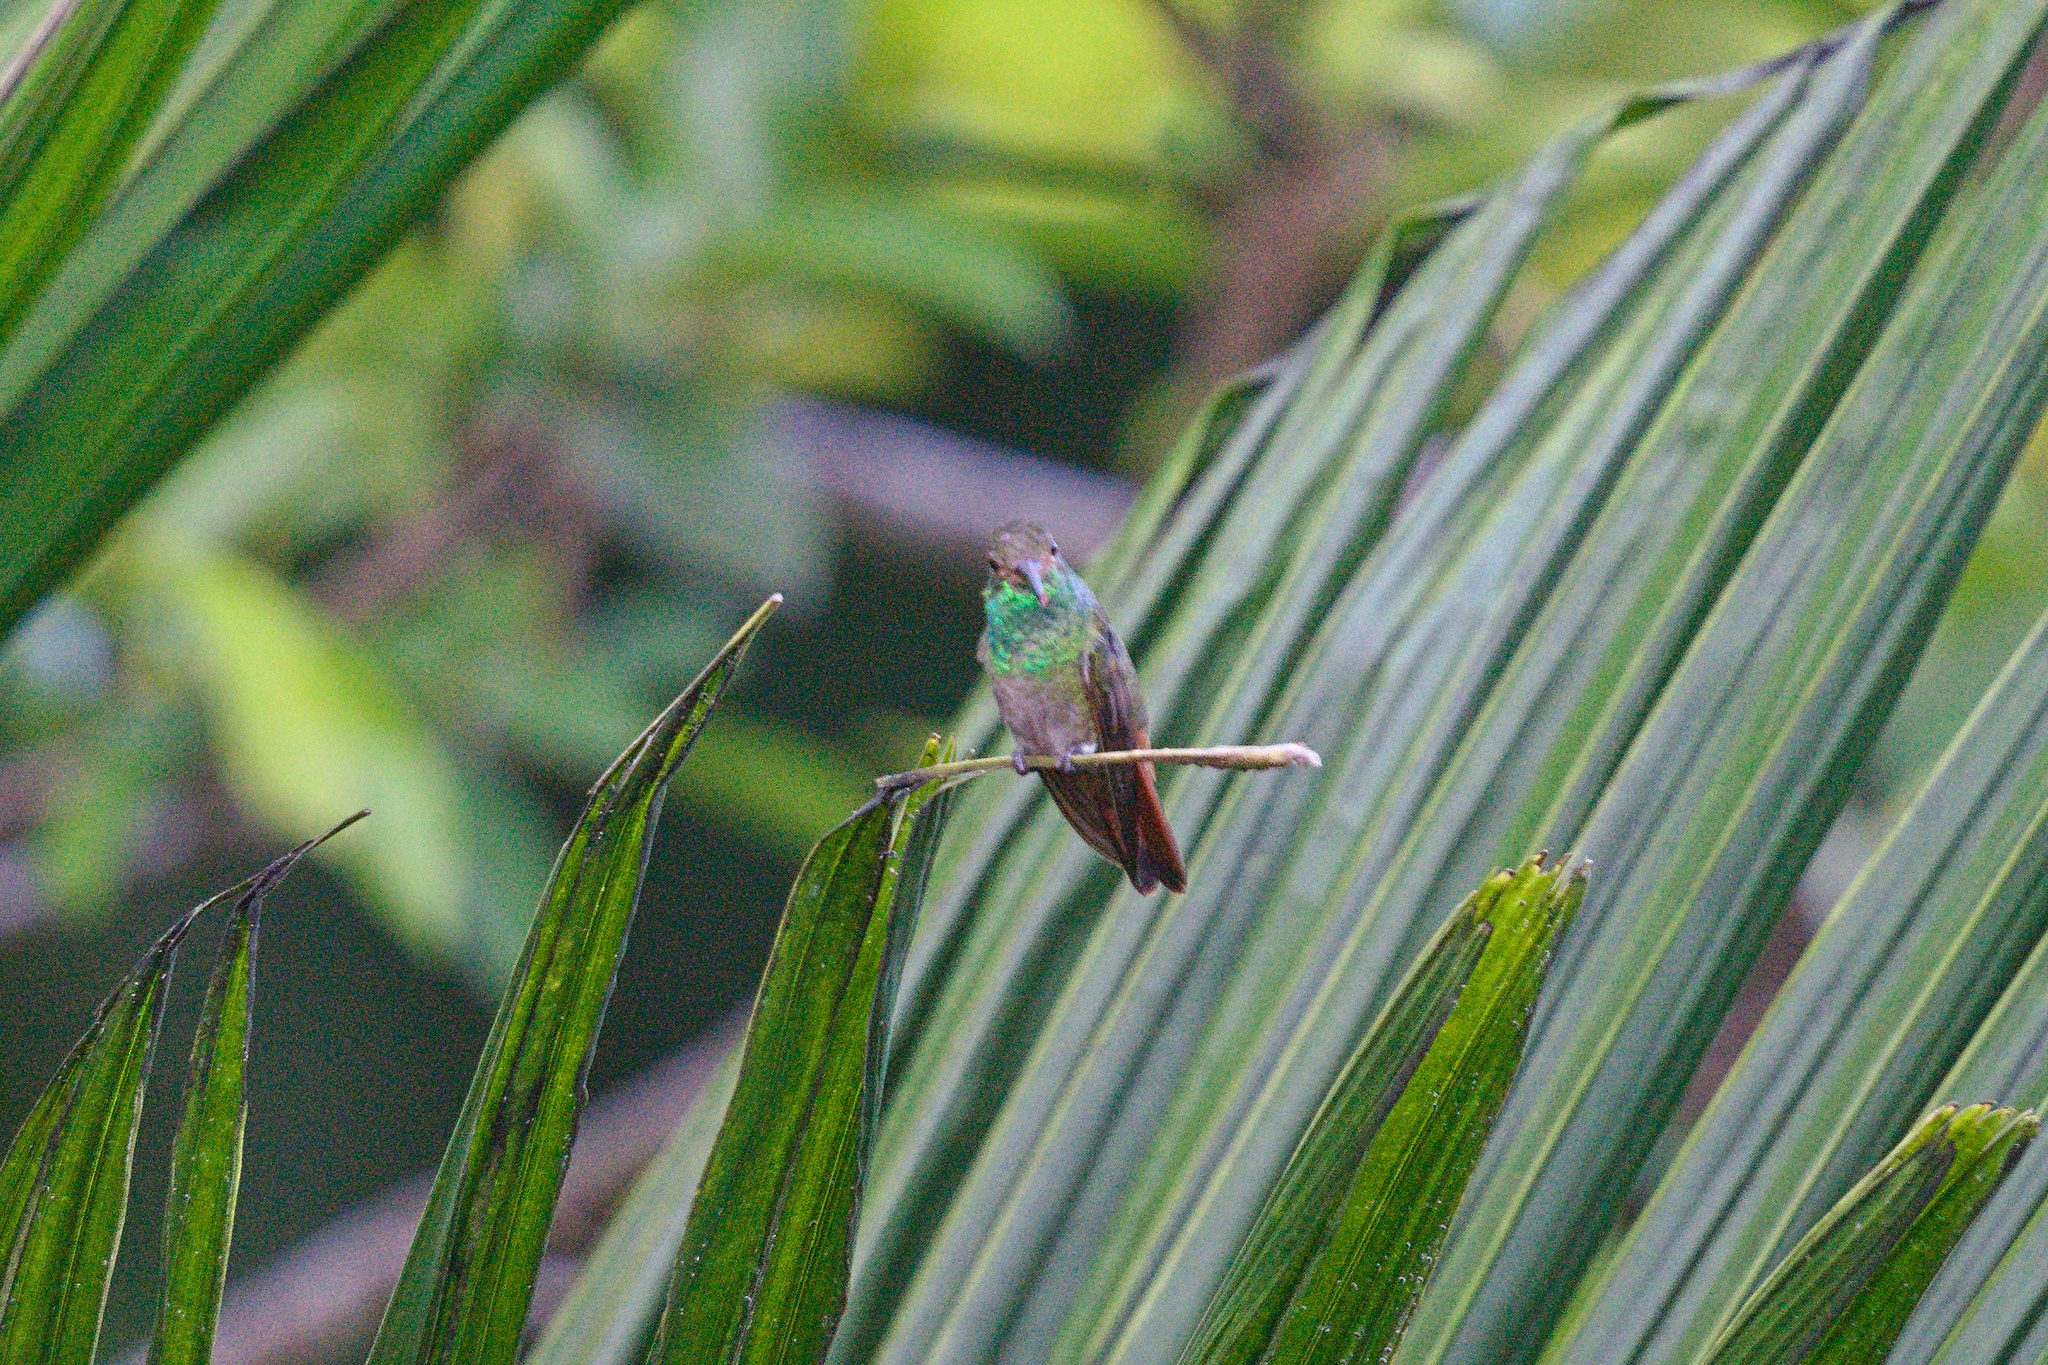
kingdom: Animalia
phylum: Chordata
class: Aves
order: Apodiformes
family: Trochilidae
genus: Amazilia
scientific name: Amazilia tzacatl
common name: Rufous-tailed hummingbird
